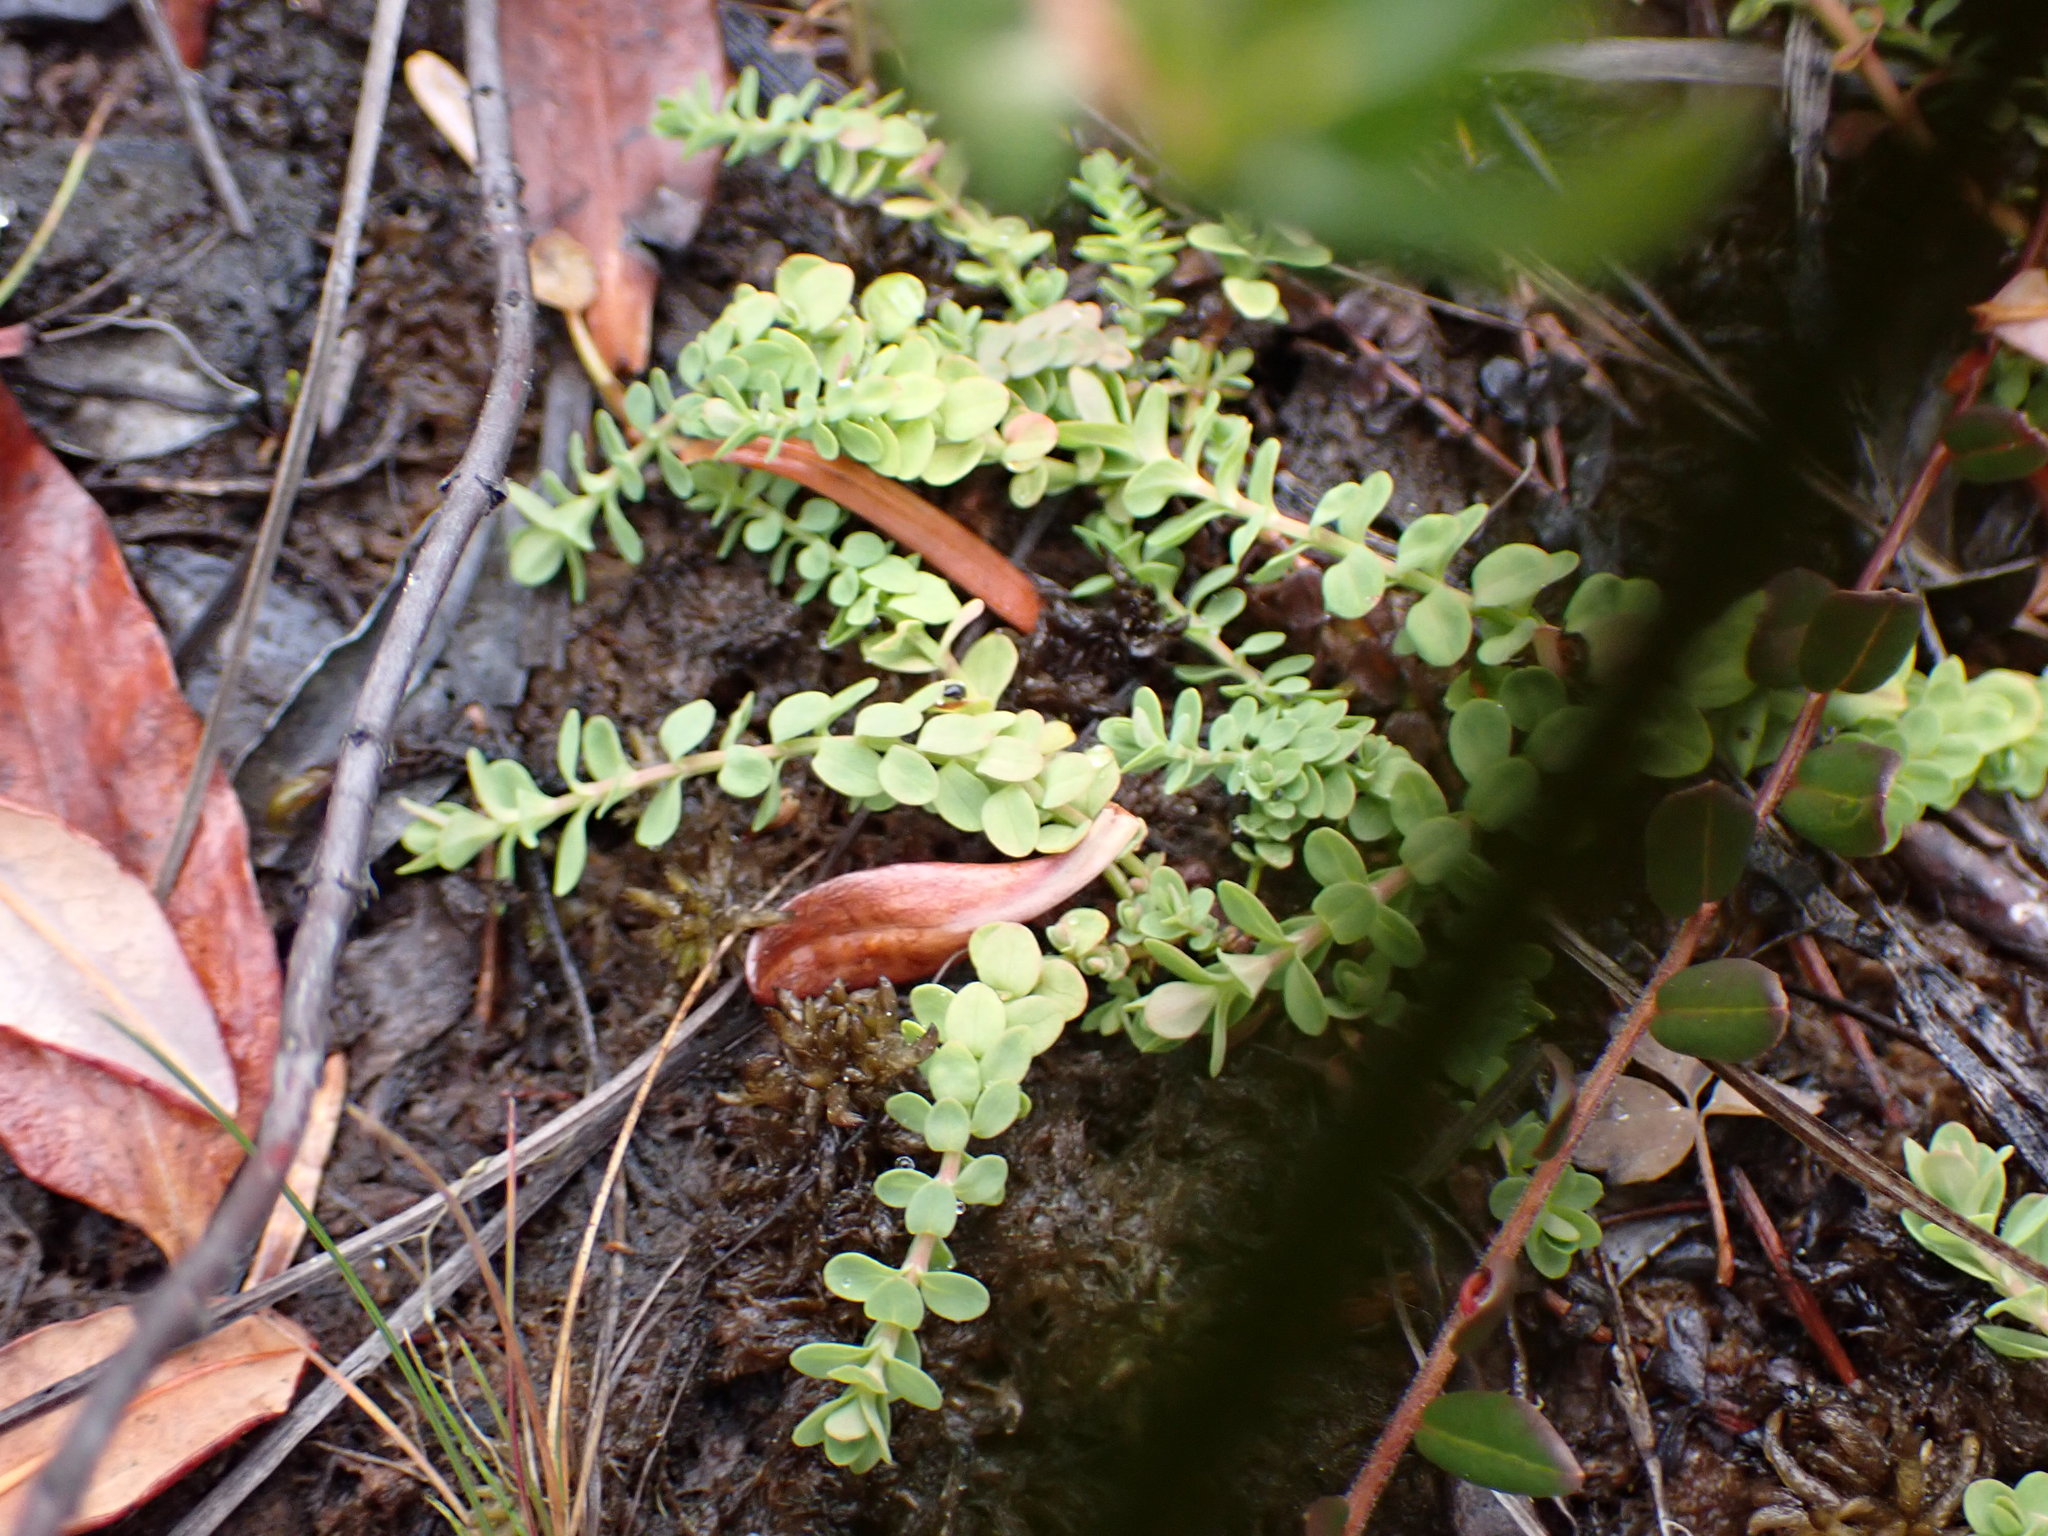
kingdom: Plantae
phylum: Tracheophyta
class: Magnoliopsida
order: Malpighiales
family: Hypericaceae
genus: Hypericum
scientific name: Hypericum anagalloides
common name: Bog st. john's-wort
